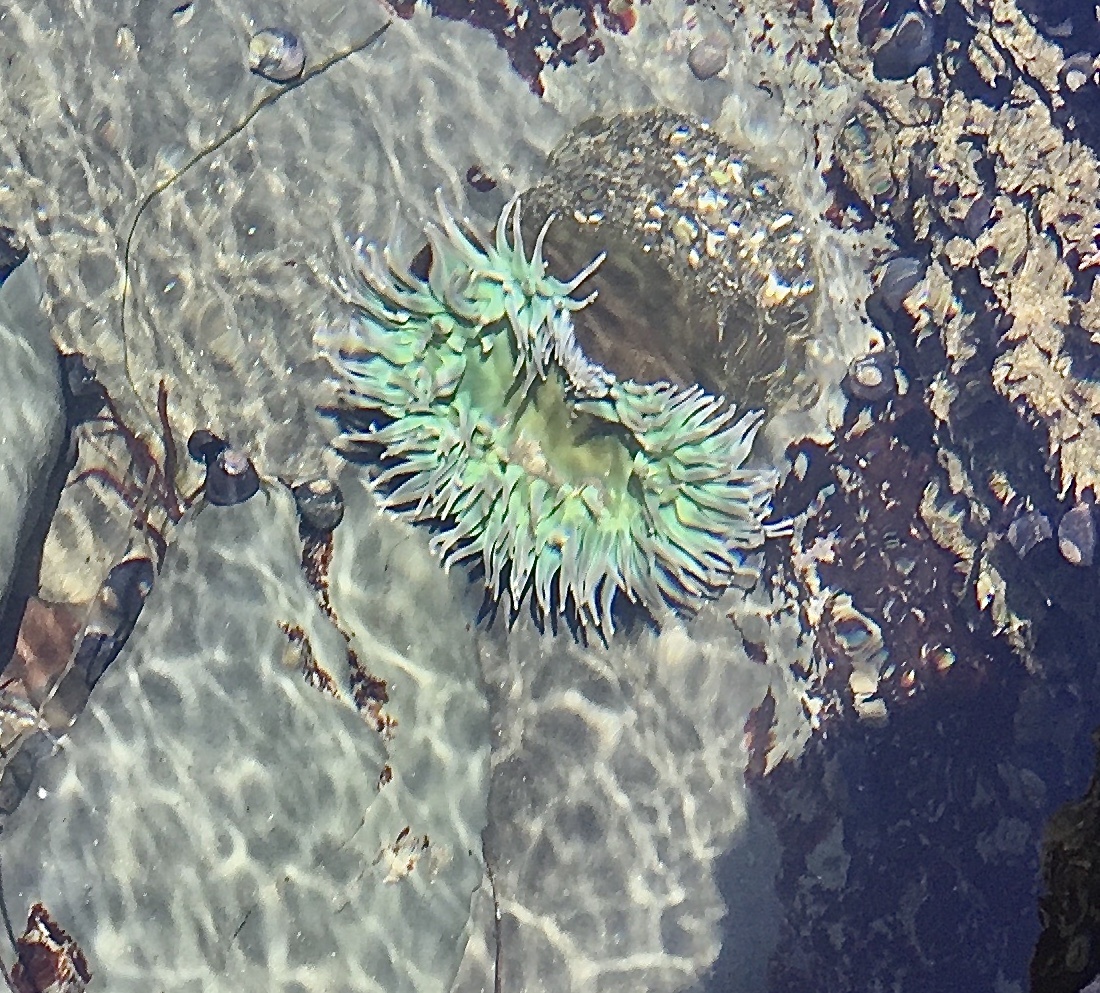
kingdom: Animalia
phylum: Cnidaria
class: Anthozoa
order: Actiniaria
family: Actiniidae
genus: Anthopleura
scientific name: Anthopleura xanthogrammica
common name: Giant green anemone
